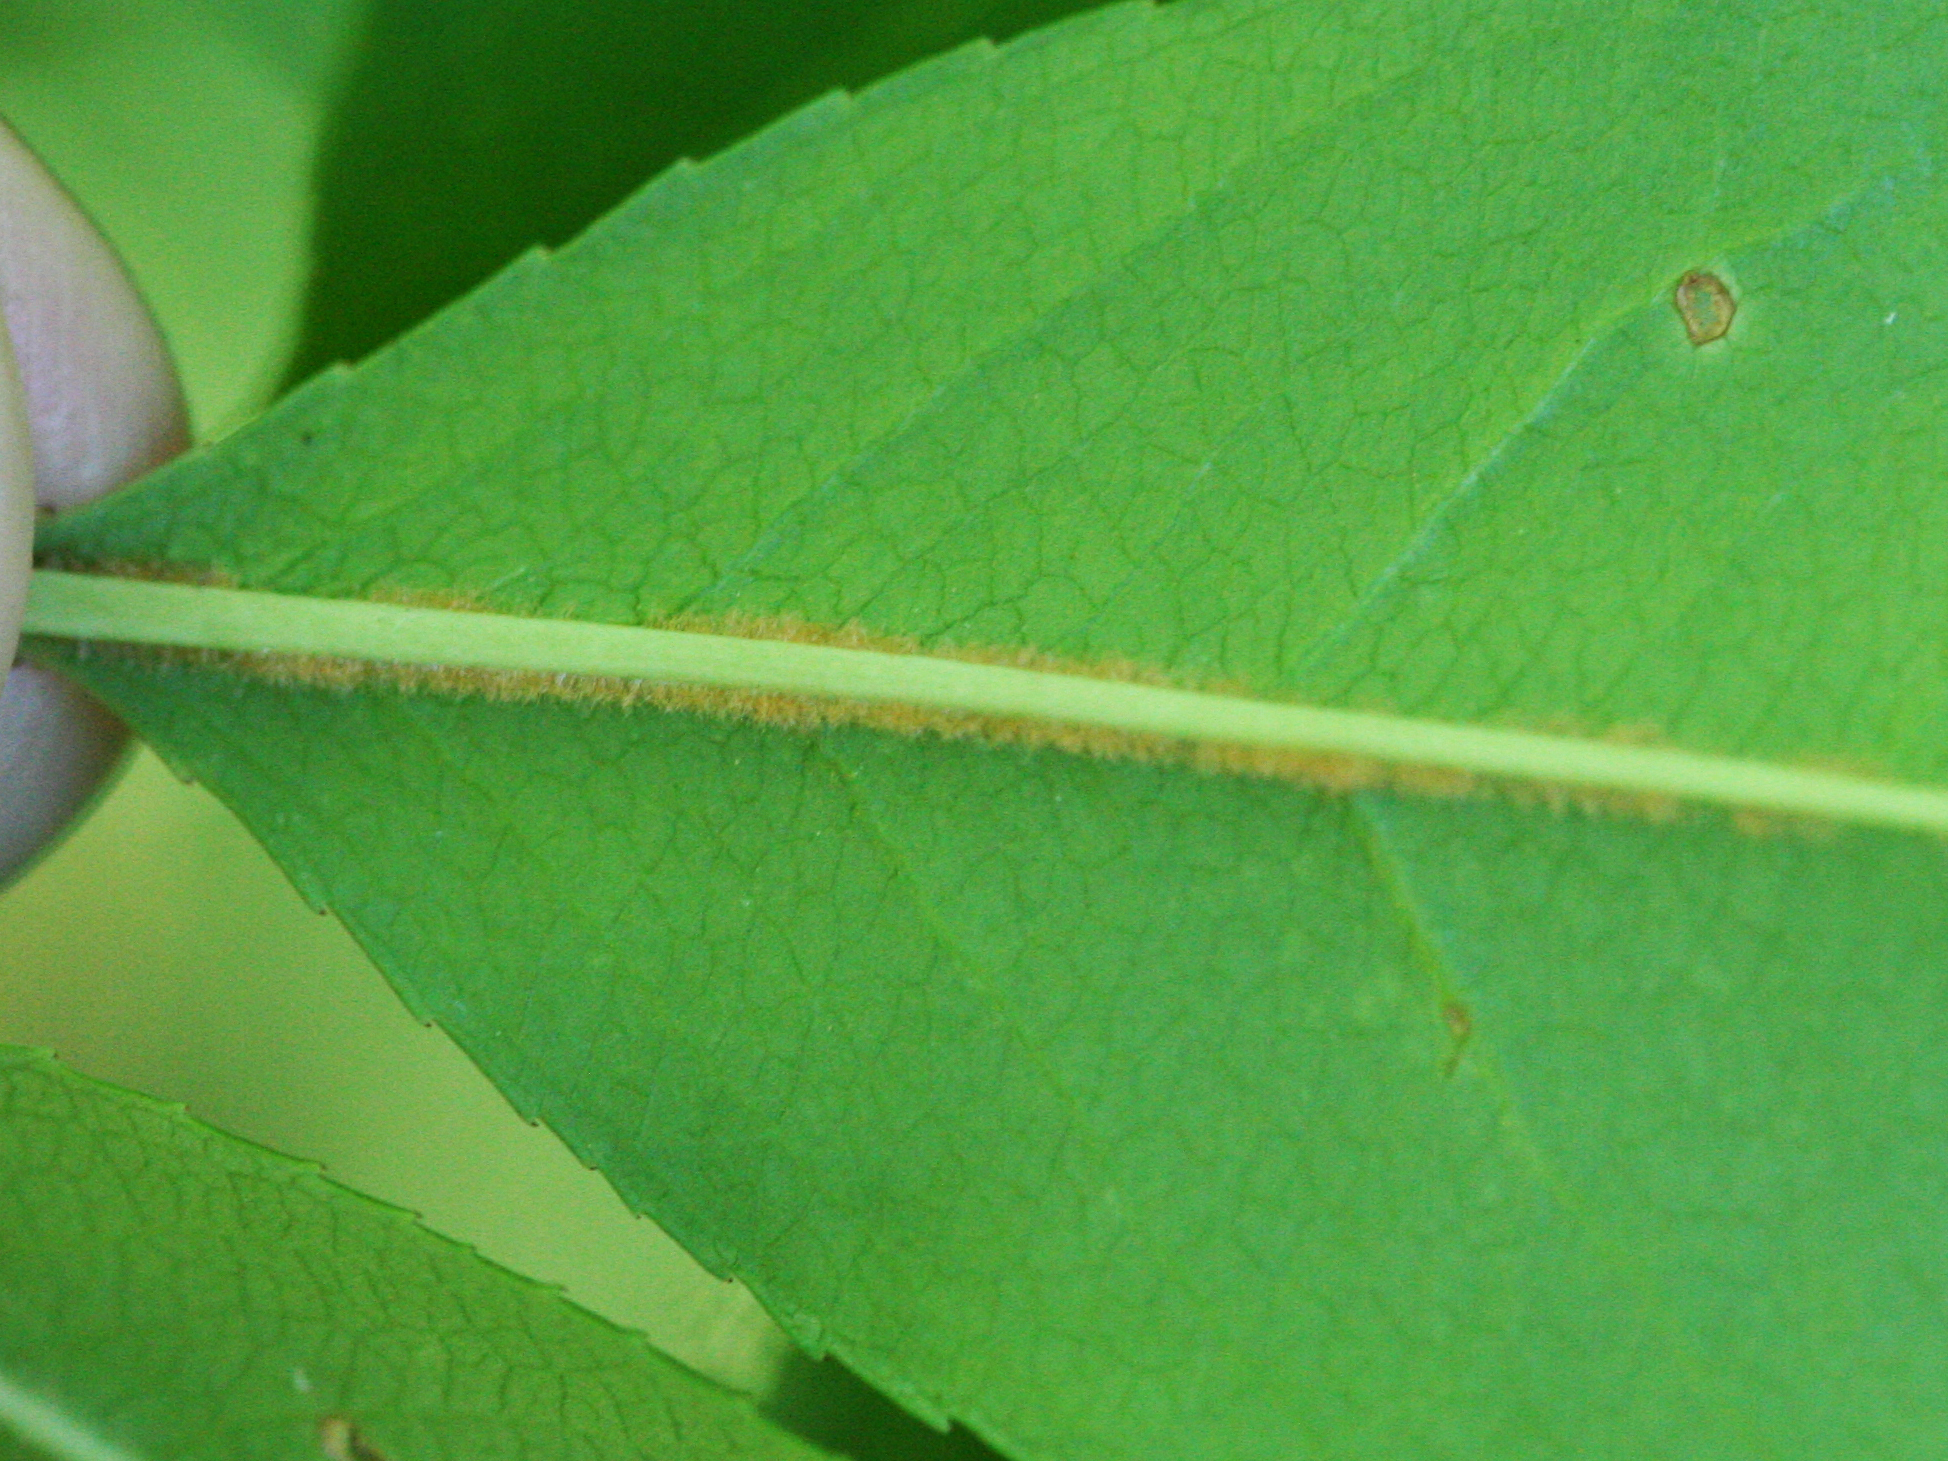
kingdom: Plantae
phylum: Tracheophyta
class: Magnoliopsida
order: Rosales
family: Rosaceae
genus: Prunus
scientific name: Prunus serotina
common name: Black cherry
